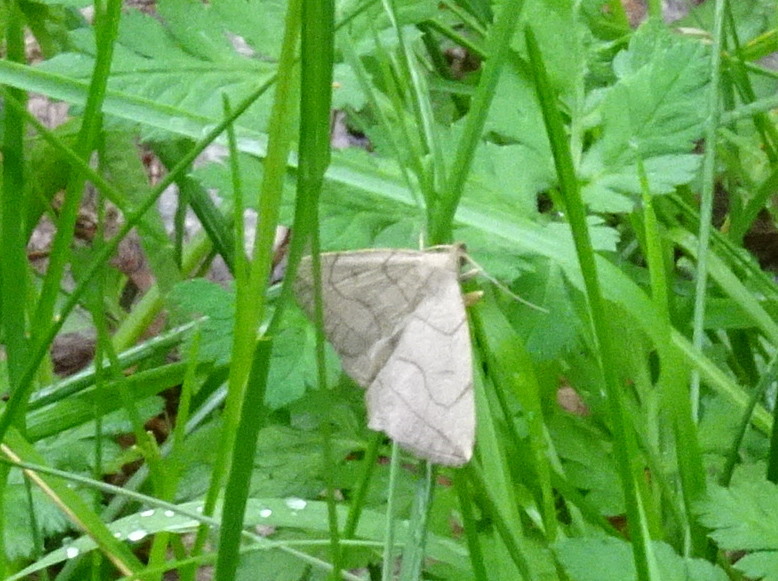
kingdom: Animalia
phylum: Arthropoda
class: Insecta
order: Lepidoptera
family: Erebidae
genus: Zanclognatha
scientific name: Zanclognatha pedipilalis
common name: Grayish fan-foot
